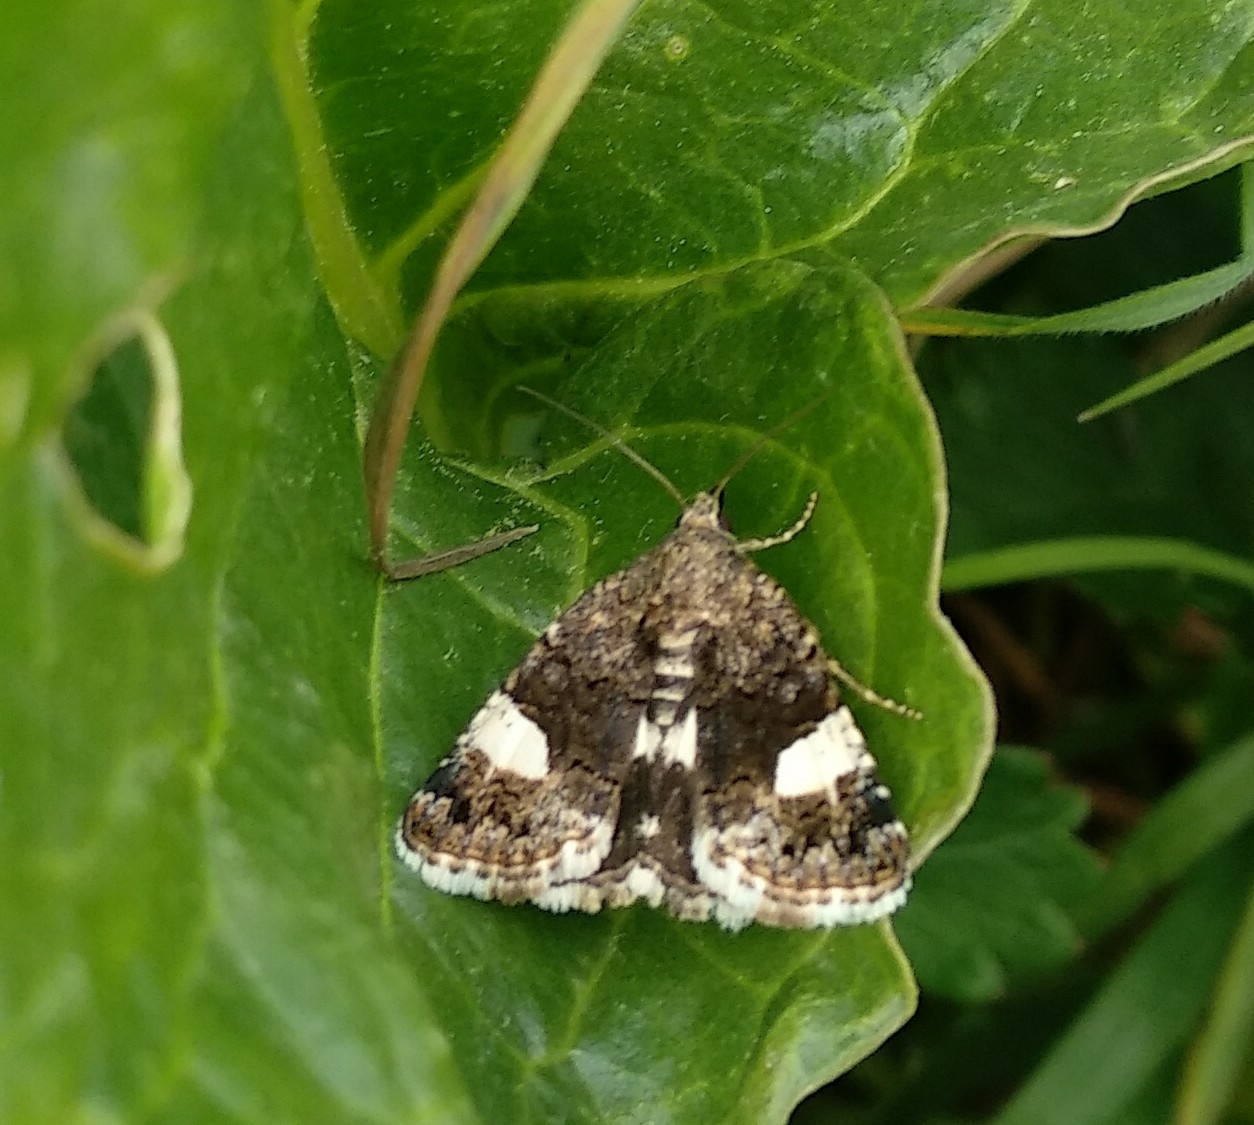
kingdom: Animalia
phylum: Arthropoda
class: Insecta
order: Lepidoptera
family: Erebidae
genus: Tyta
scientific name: Tyta luctuosa
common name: Four-spotted
